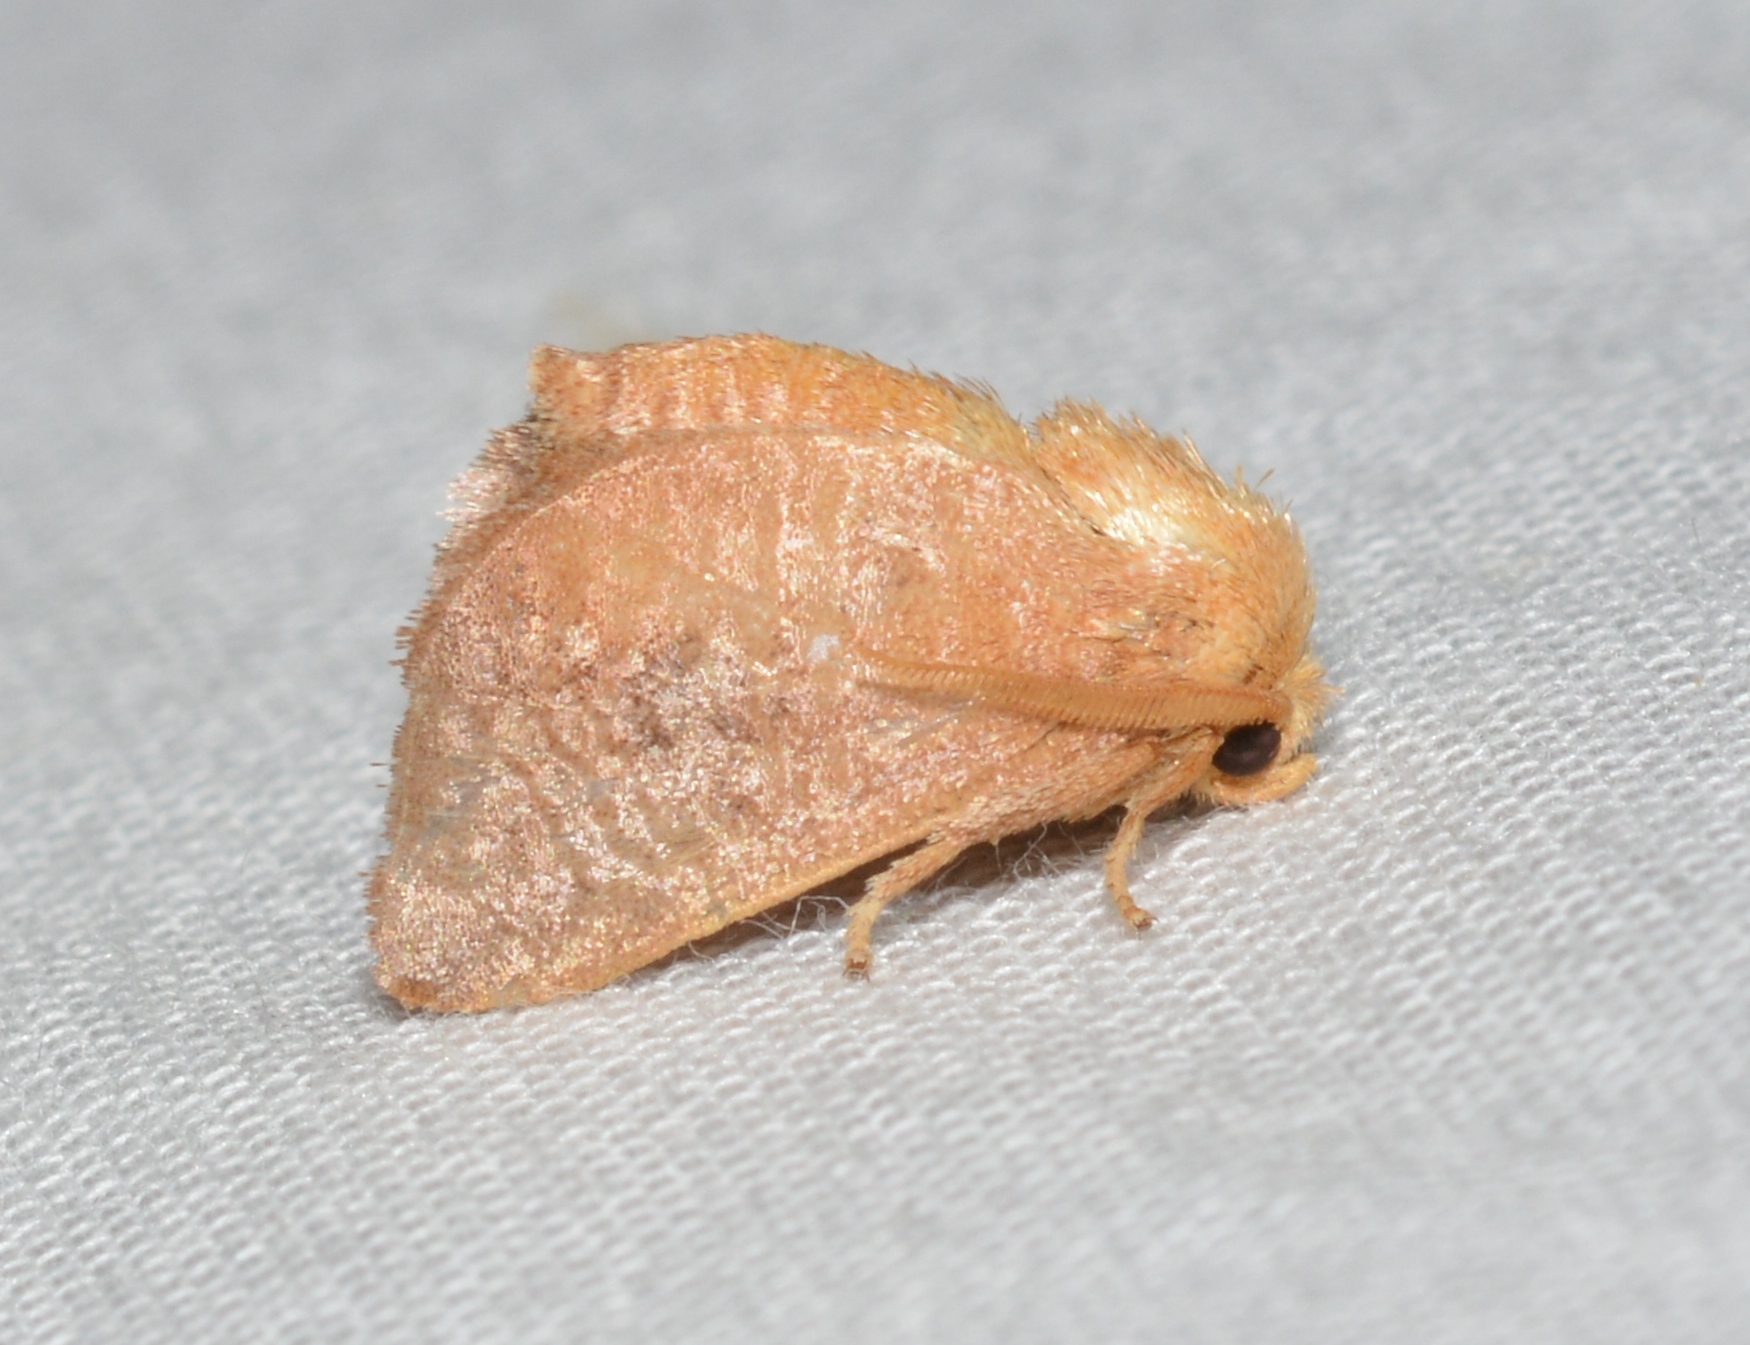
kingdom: Animalia
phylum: Arthropoda
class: Insecta
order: Lepidoptera
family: Limacodidae
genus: Isa
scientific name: Isa textula
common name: Crowned slug moth
